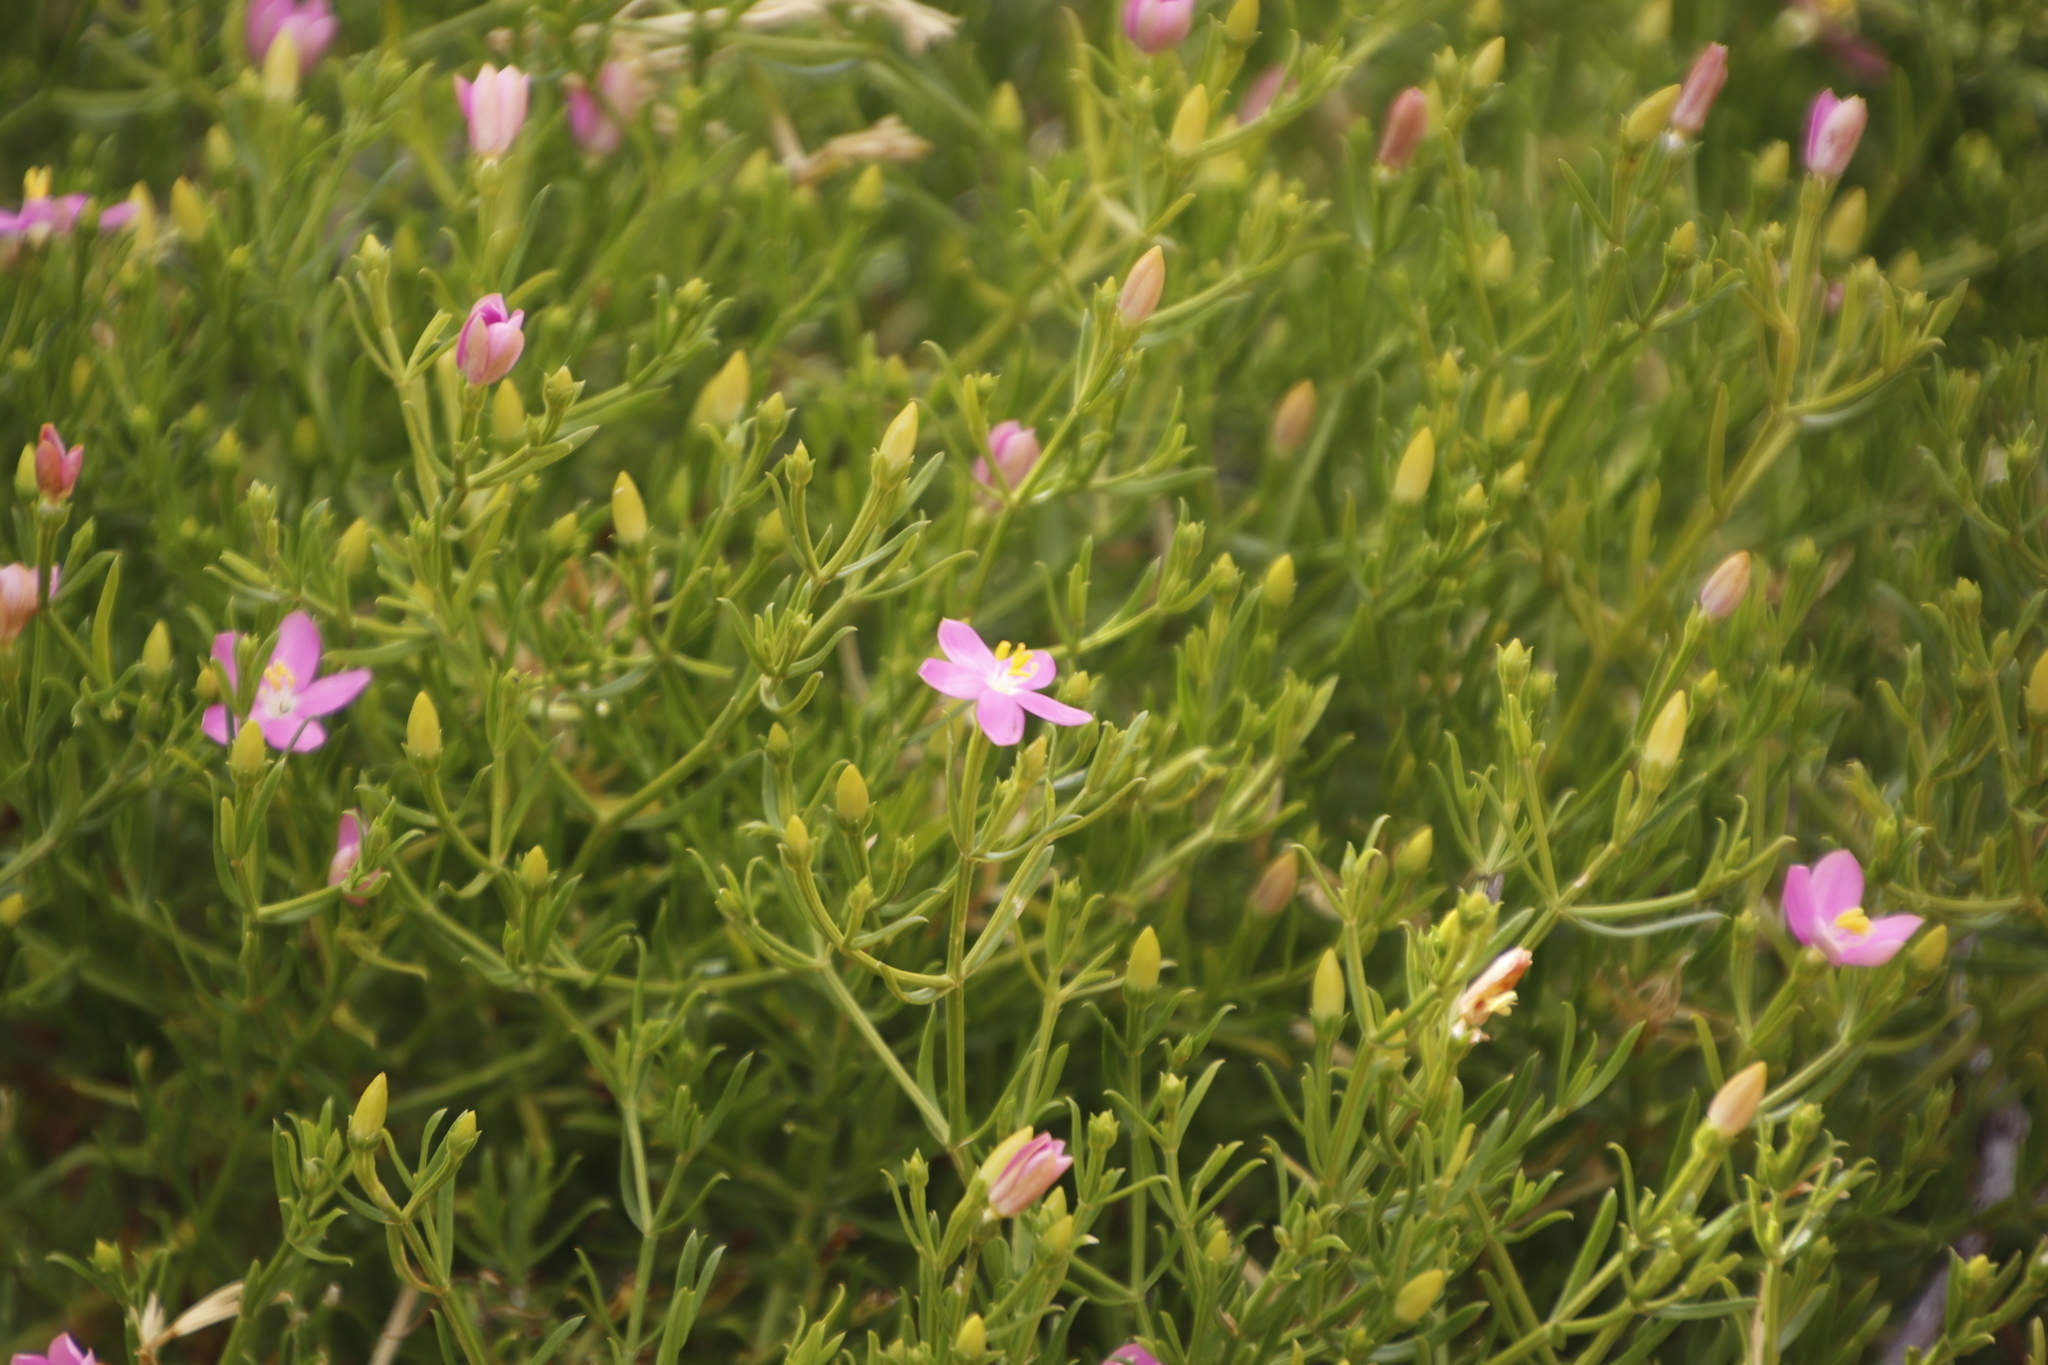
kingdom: Plantae
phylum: Tracheophyta
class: Magnoliopsida
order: Gentianales
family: Gentianaceae
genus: Chironia
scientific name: Chironia baccifera
